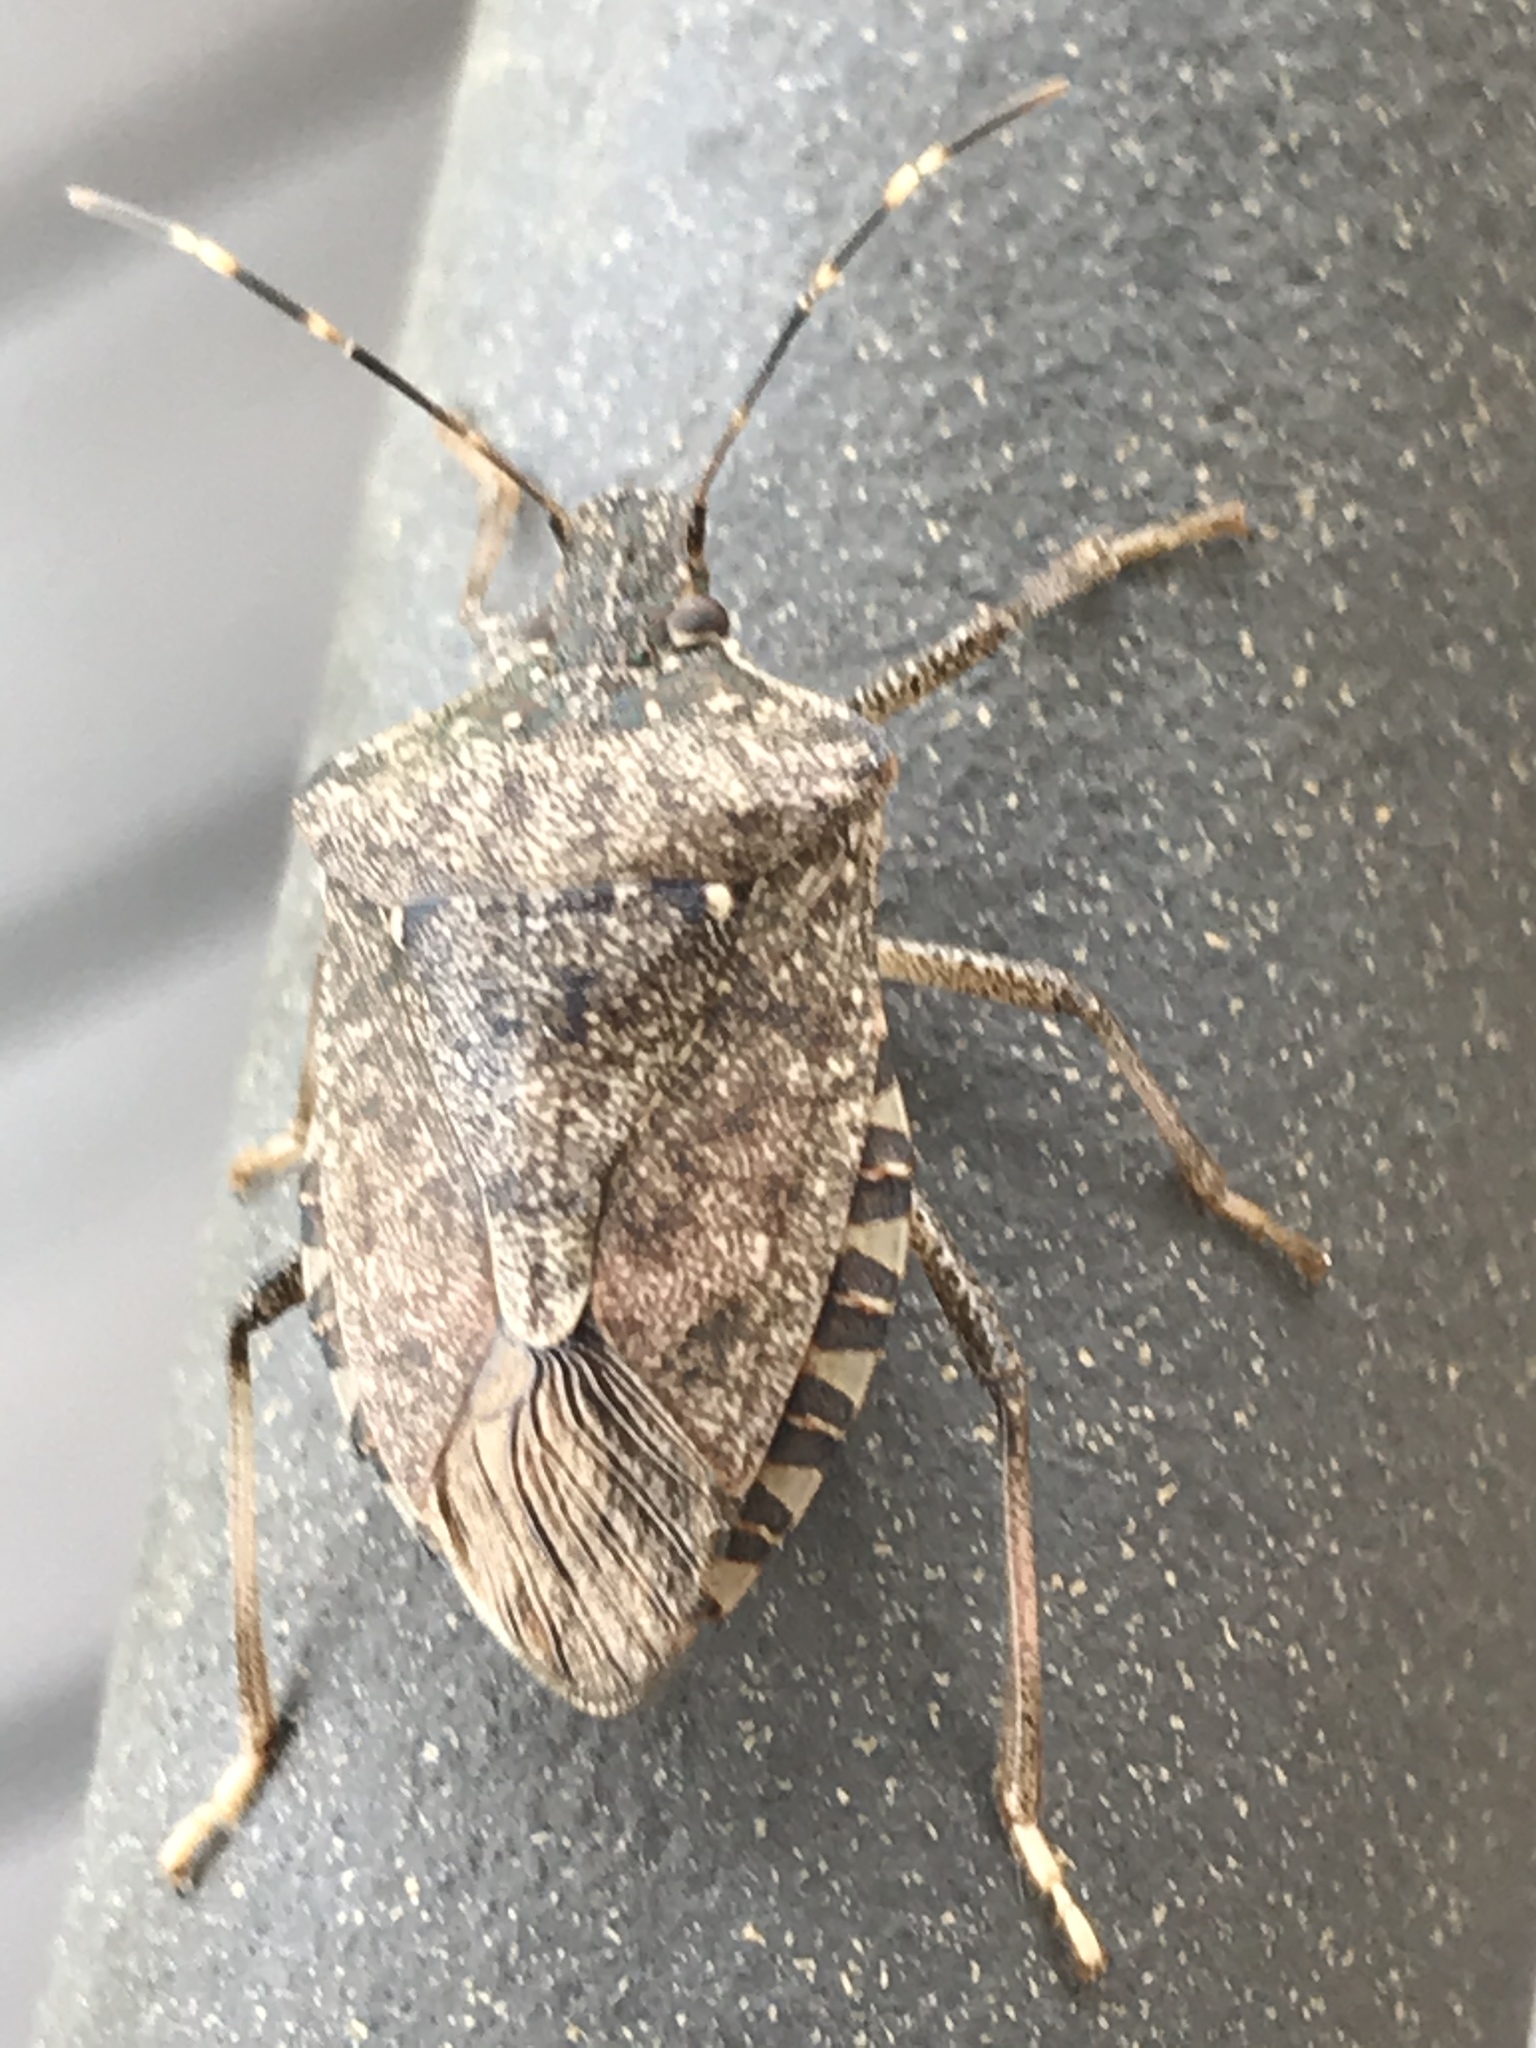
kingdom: Animalia
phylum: Arthropoda
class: Insecta
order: Hemiptera
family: Pentatomidae
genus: Halyomorpha
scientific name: Halyomorpha halys
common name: Brown marmorated stink bug
